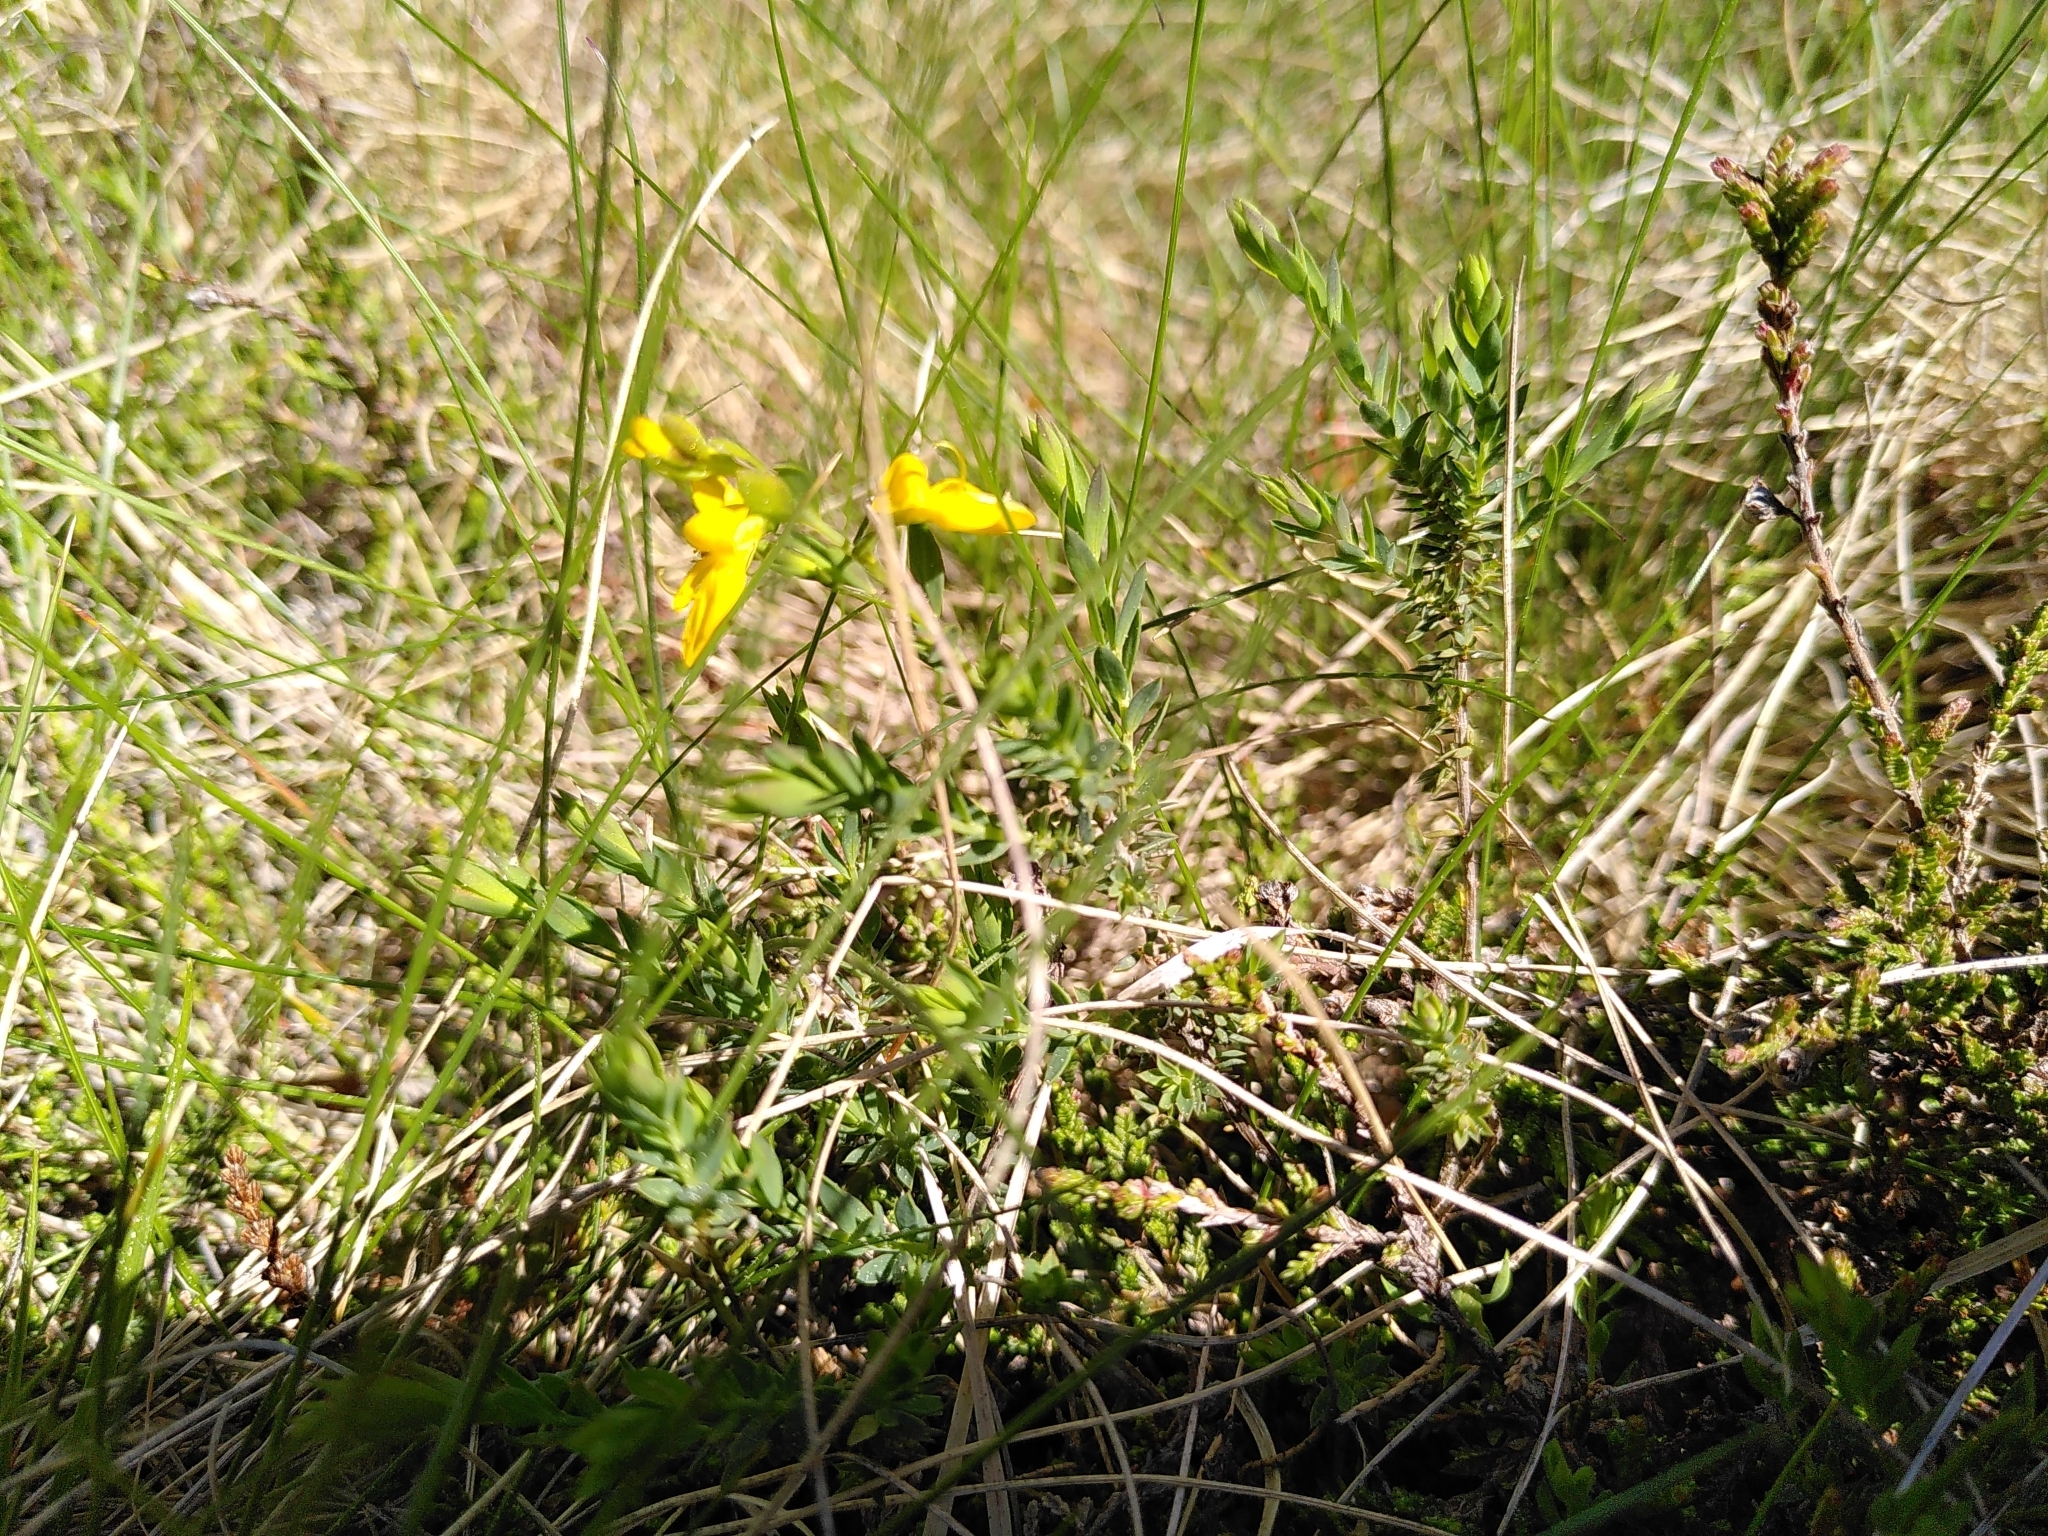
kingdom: Plantae
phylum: Tracheophyta
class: Magnoliopsida
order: Fabales
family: Fabaceae
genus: Genista
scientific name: Genista anglica
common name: Petty whin
